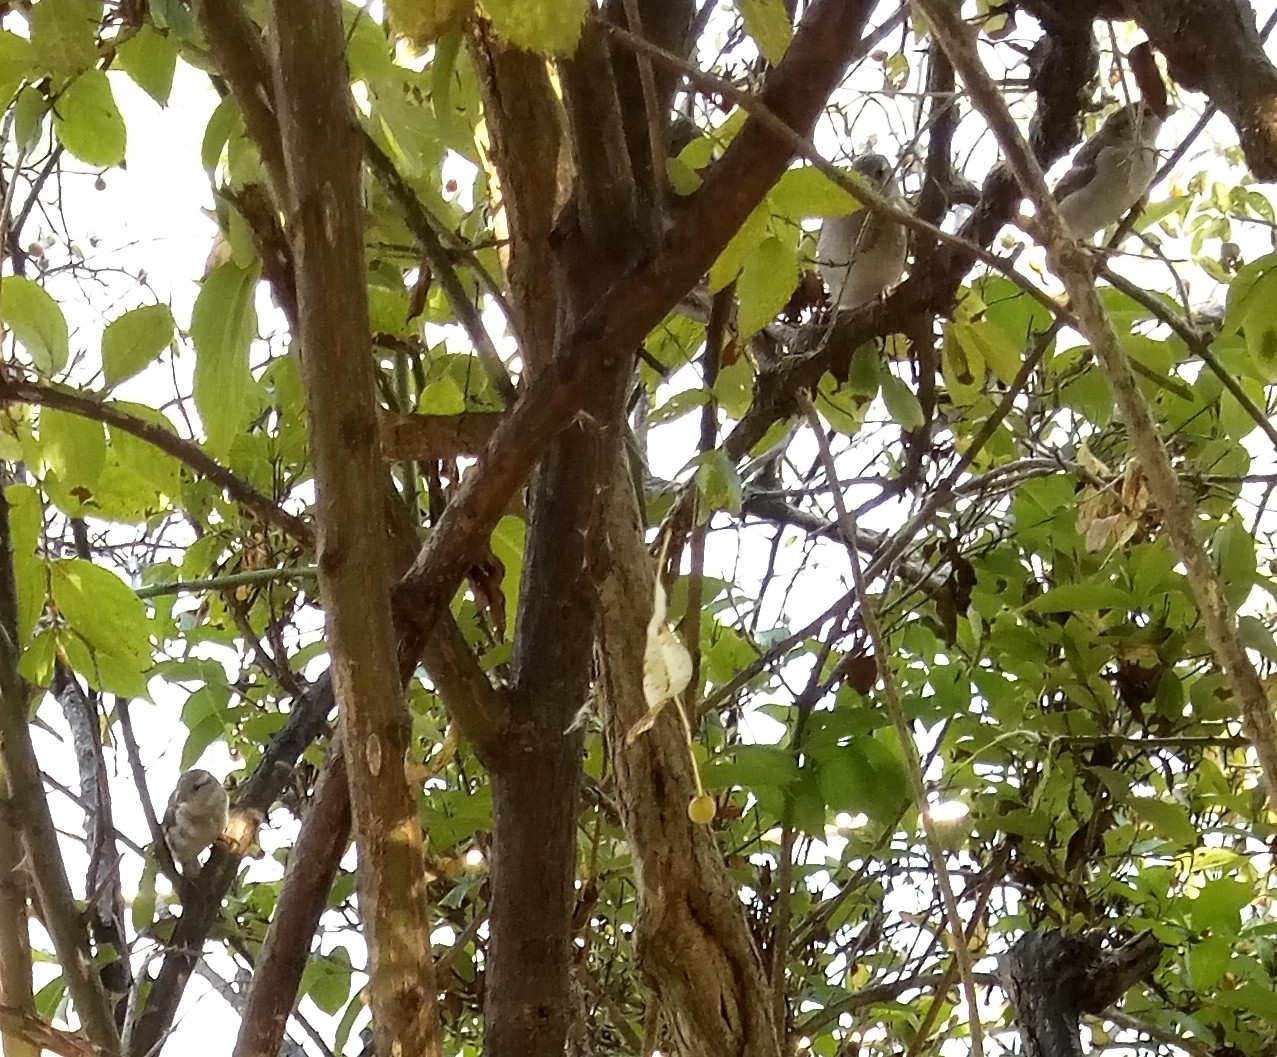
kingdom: Animalia
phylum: Chordata
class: Aves
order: Passeriformes
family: Passeridae
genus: Passer
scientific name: Passer domesticus
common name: House sparrow
